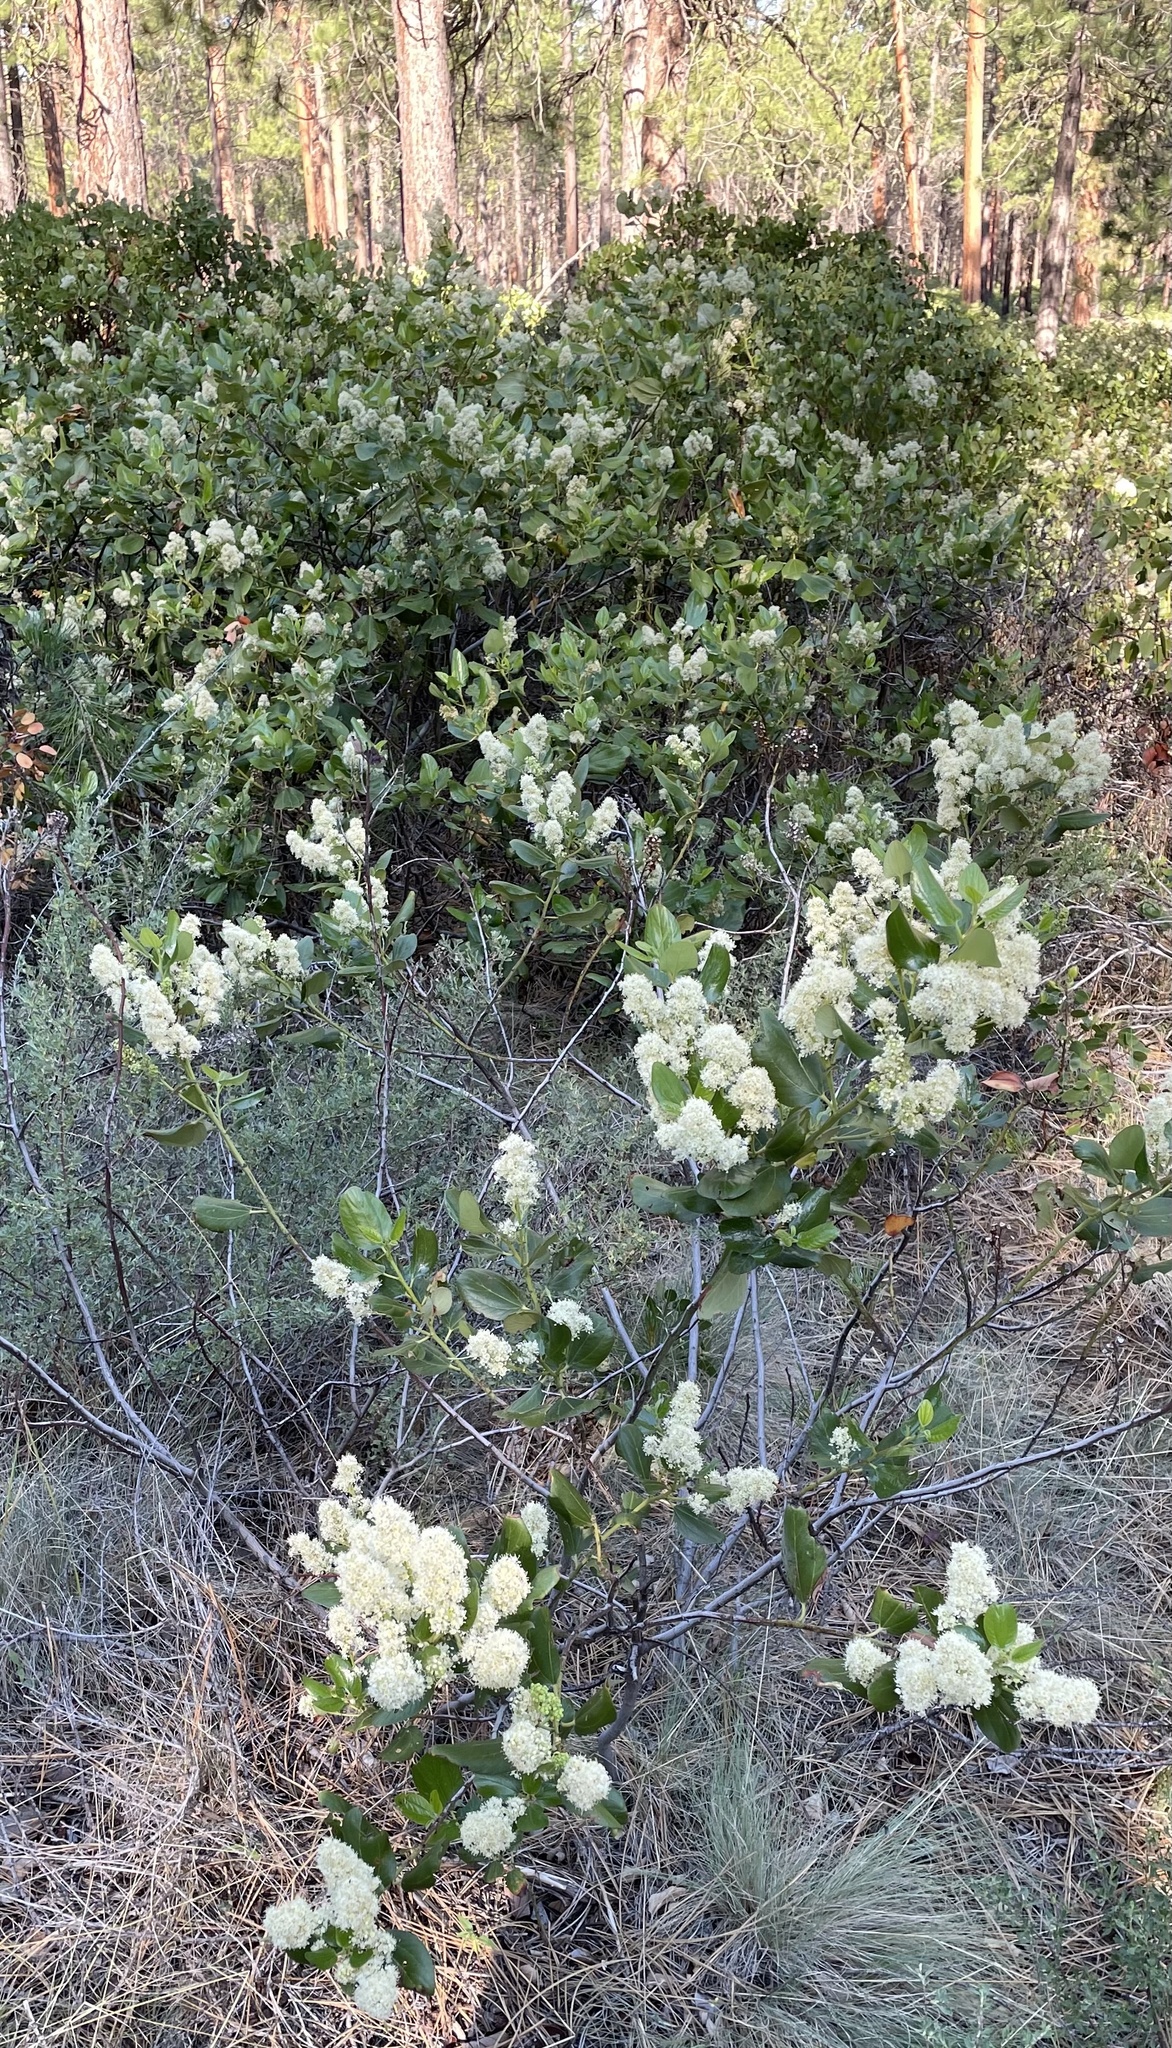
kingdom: Plantae
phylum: Tracheophyta
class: Magnoliopsida
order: Rosales
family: Rhamnaceae
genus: Ceanothus
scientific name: Ceanothus velutinus
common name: Snowbrush
